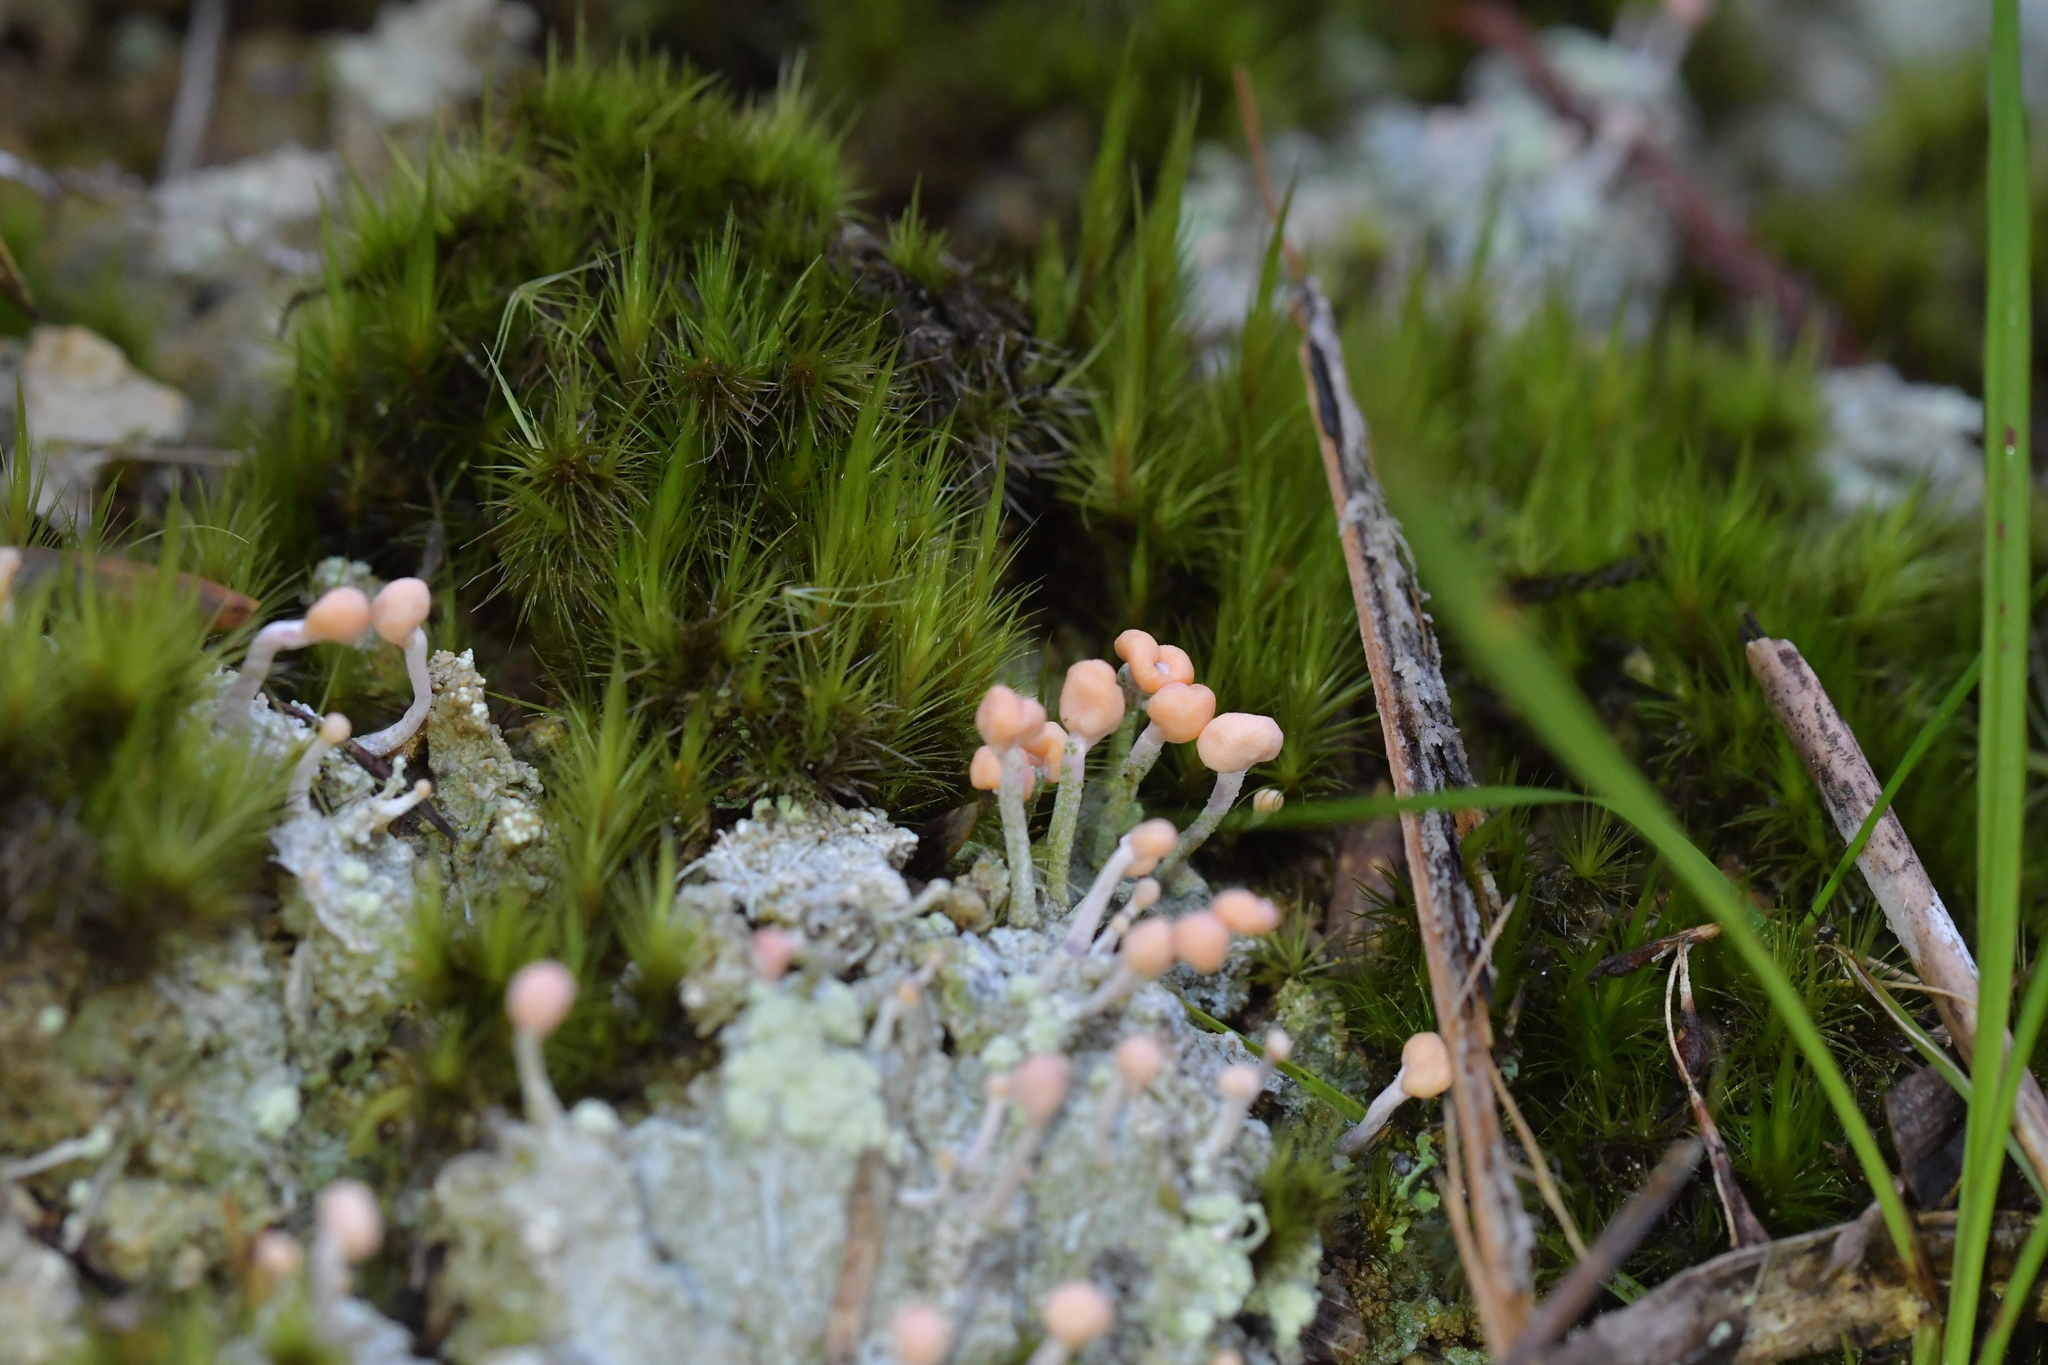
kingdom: Fungi
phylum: Ascomycota
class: Lecanoromycetes
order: Pertusariales
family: Icmadophilaceae
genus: Dibaeis
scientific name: Dibaeis arcuata
